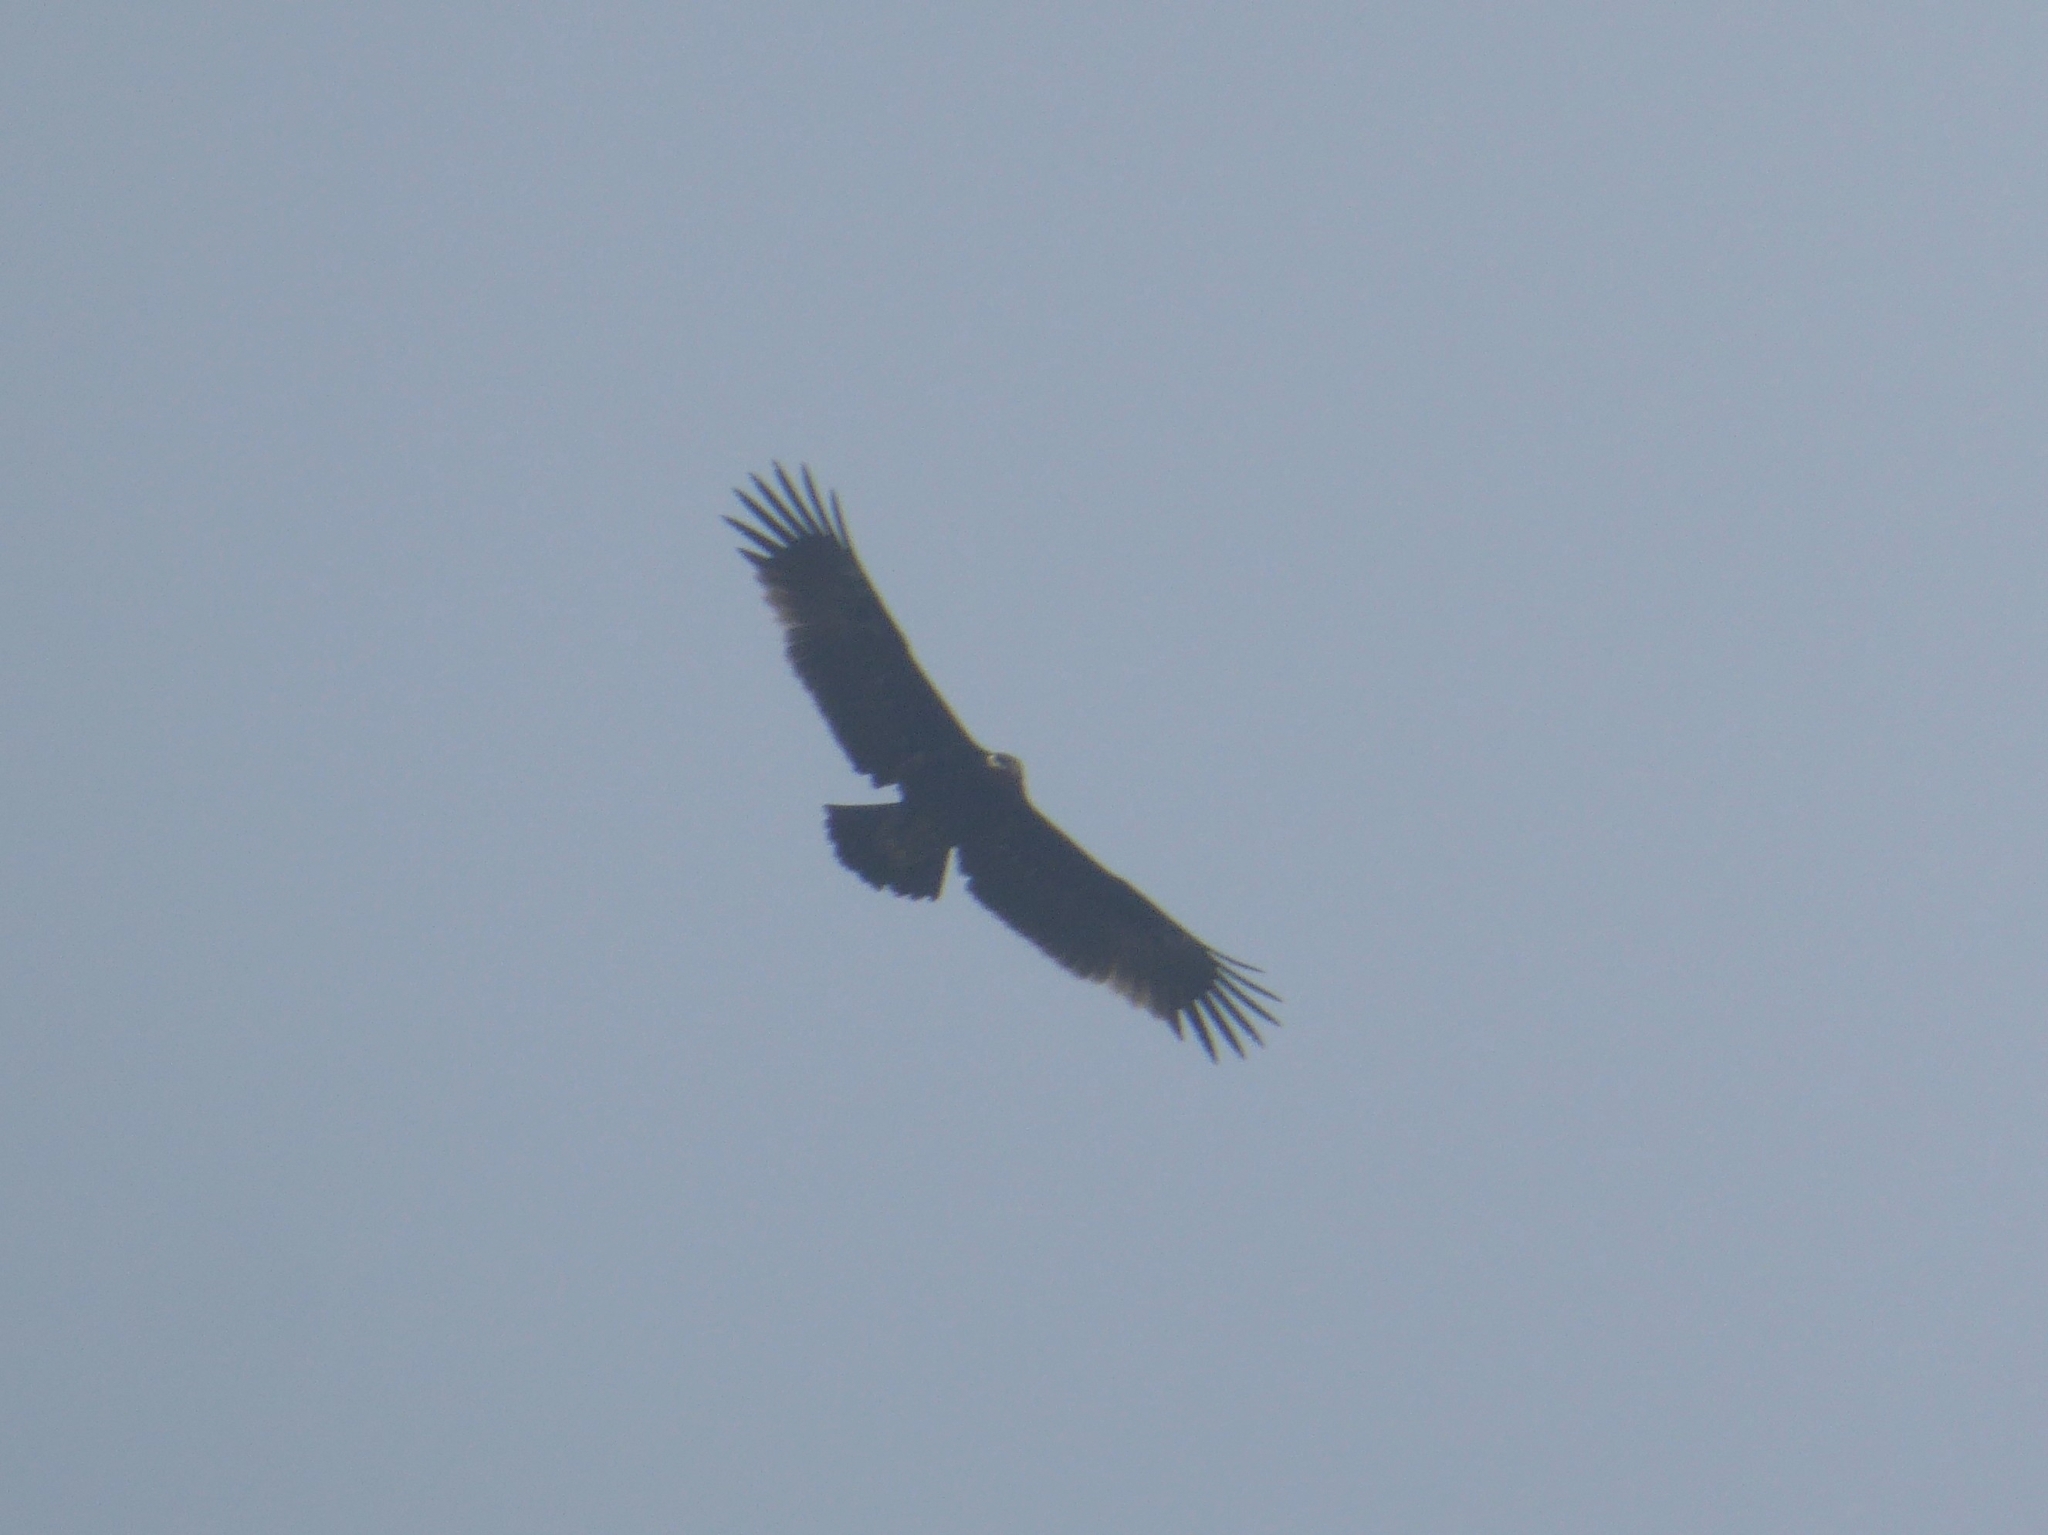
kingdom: Animalia
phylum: Chordata
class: Aves
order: Accipitriformes
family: Accipitridae
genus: Aquila
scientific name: Aquila clanga
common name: Greater spotted eagle
